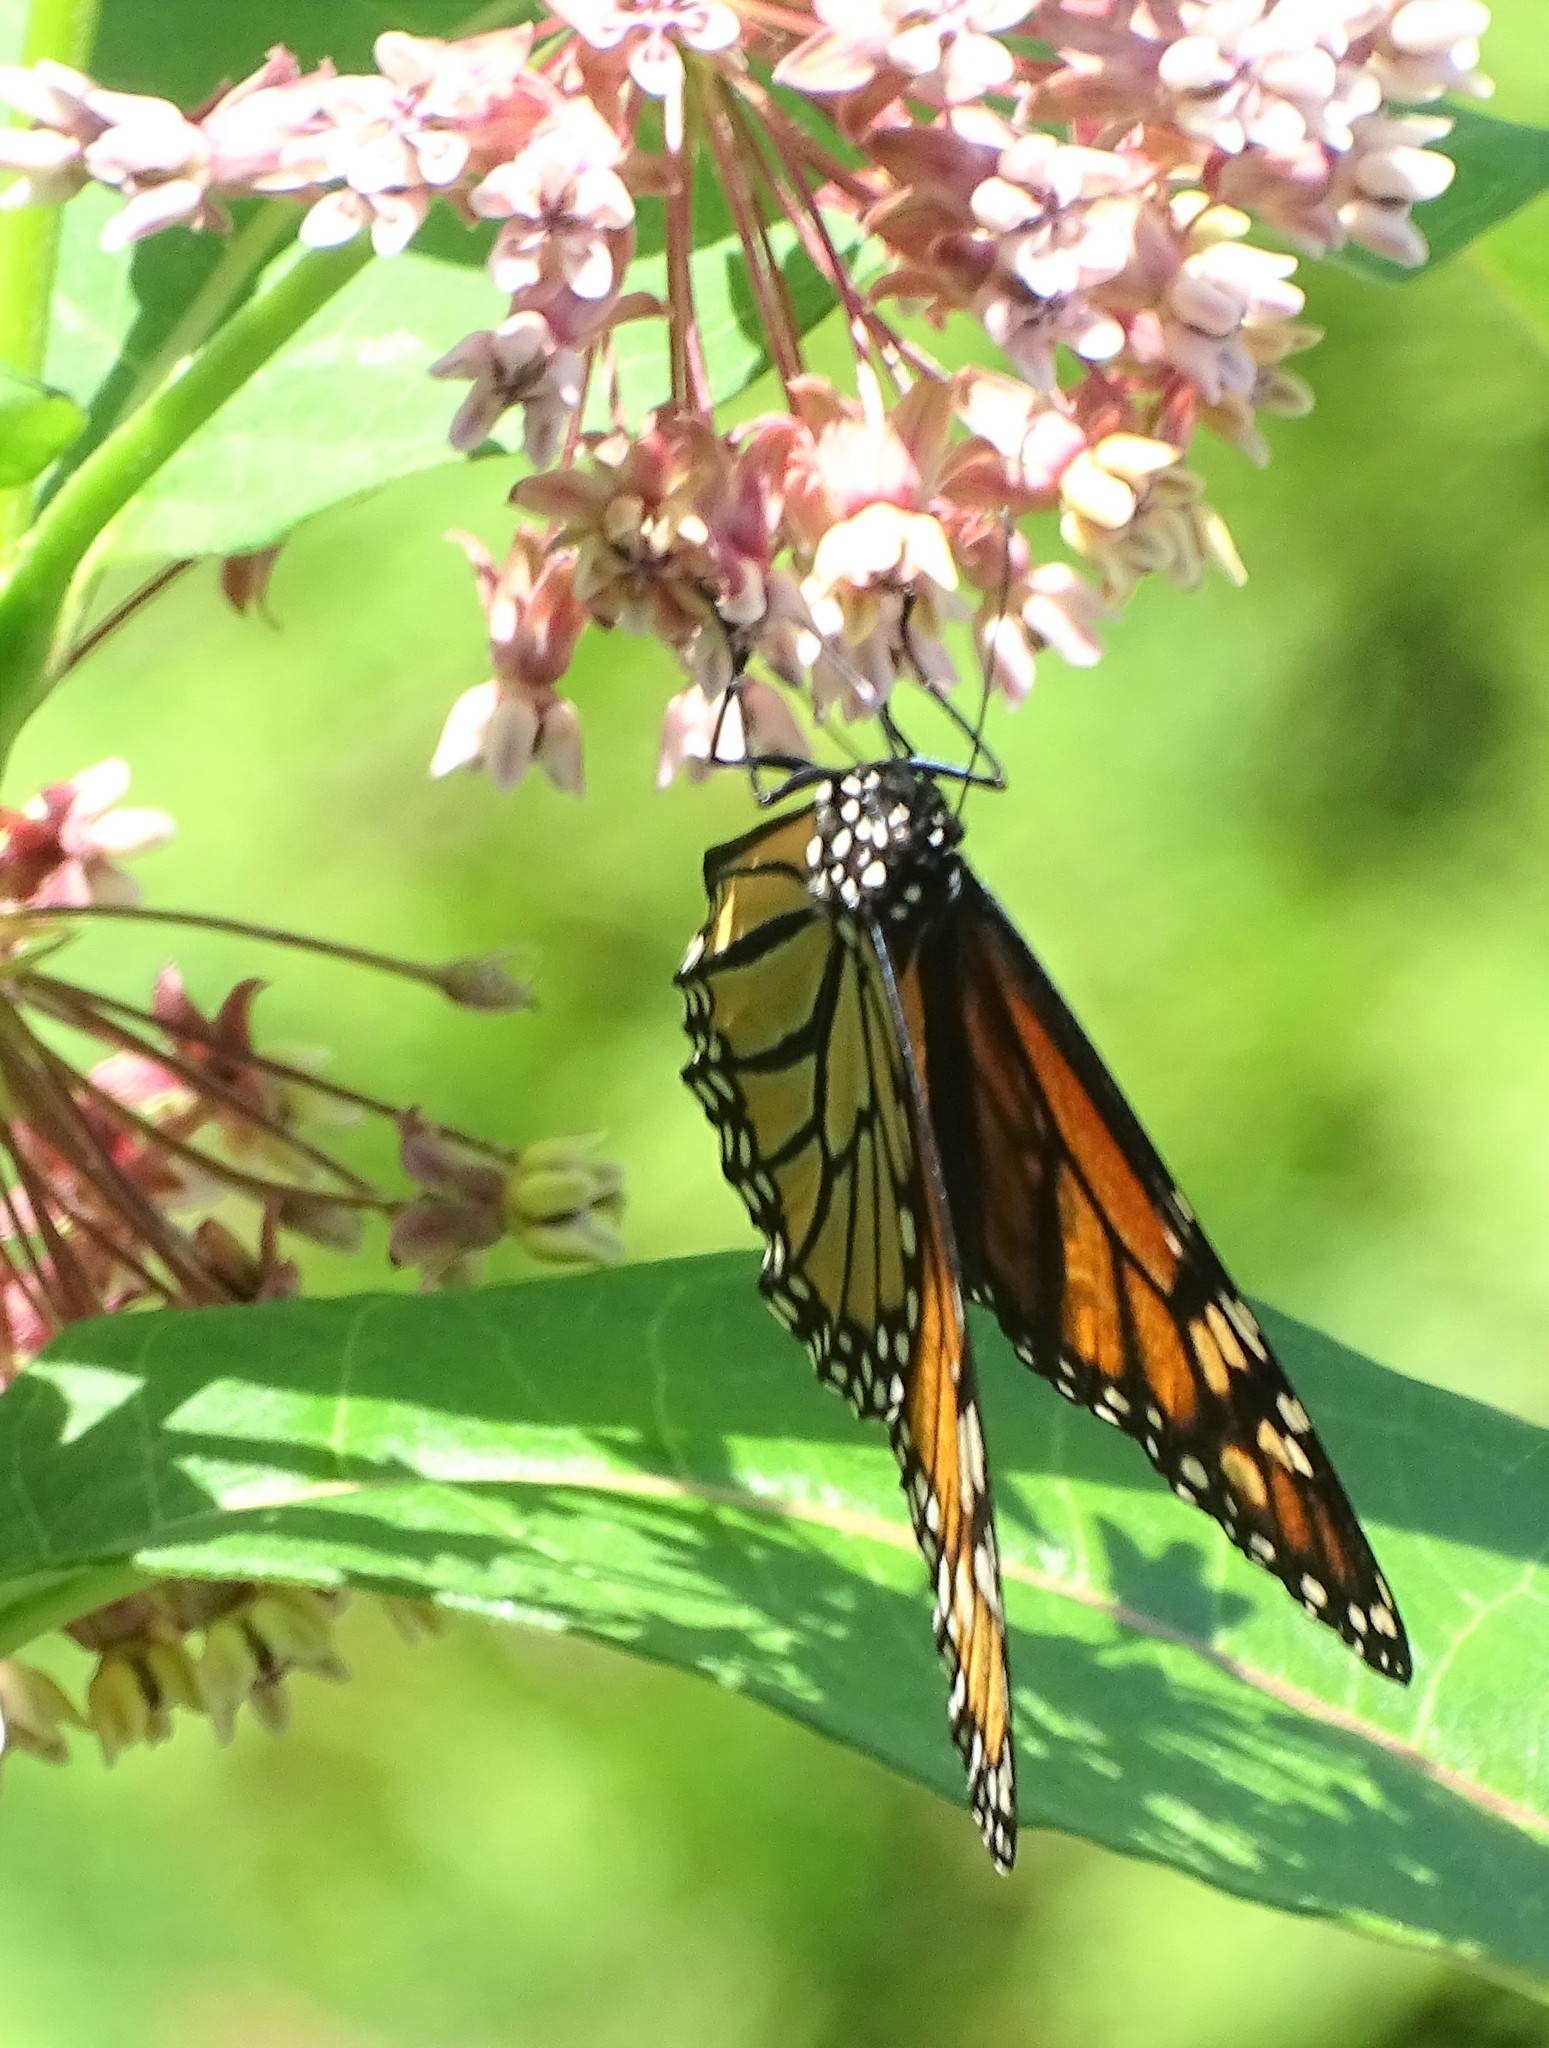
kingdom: Animalia
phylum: Arthropoda
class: Insecta
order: Lepidoptera
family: Nymphalidae
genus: Danaus
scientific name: Danaus plexippus
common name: Monarch
